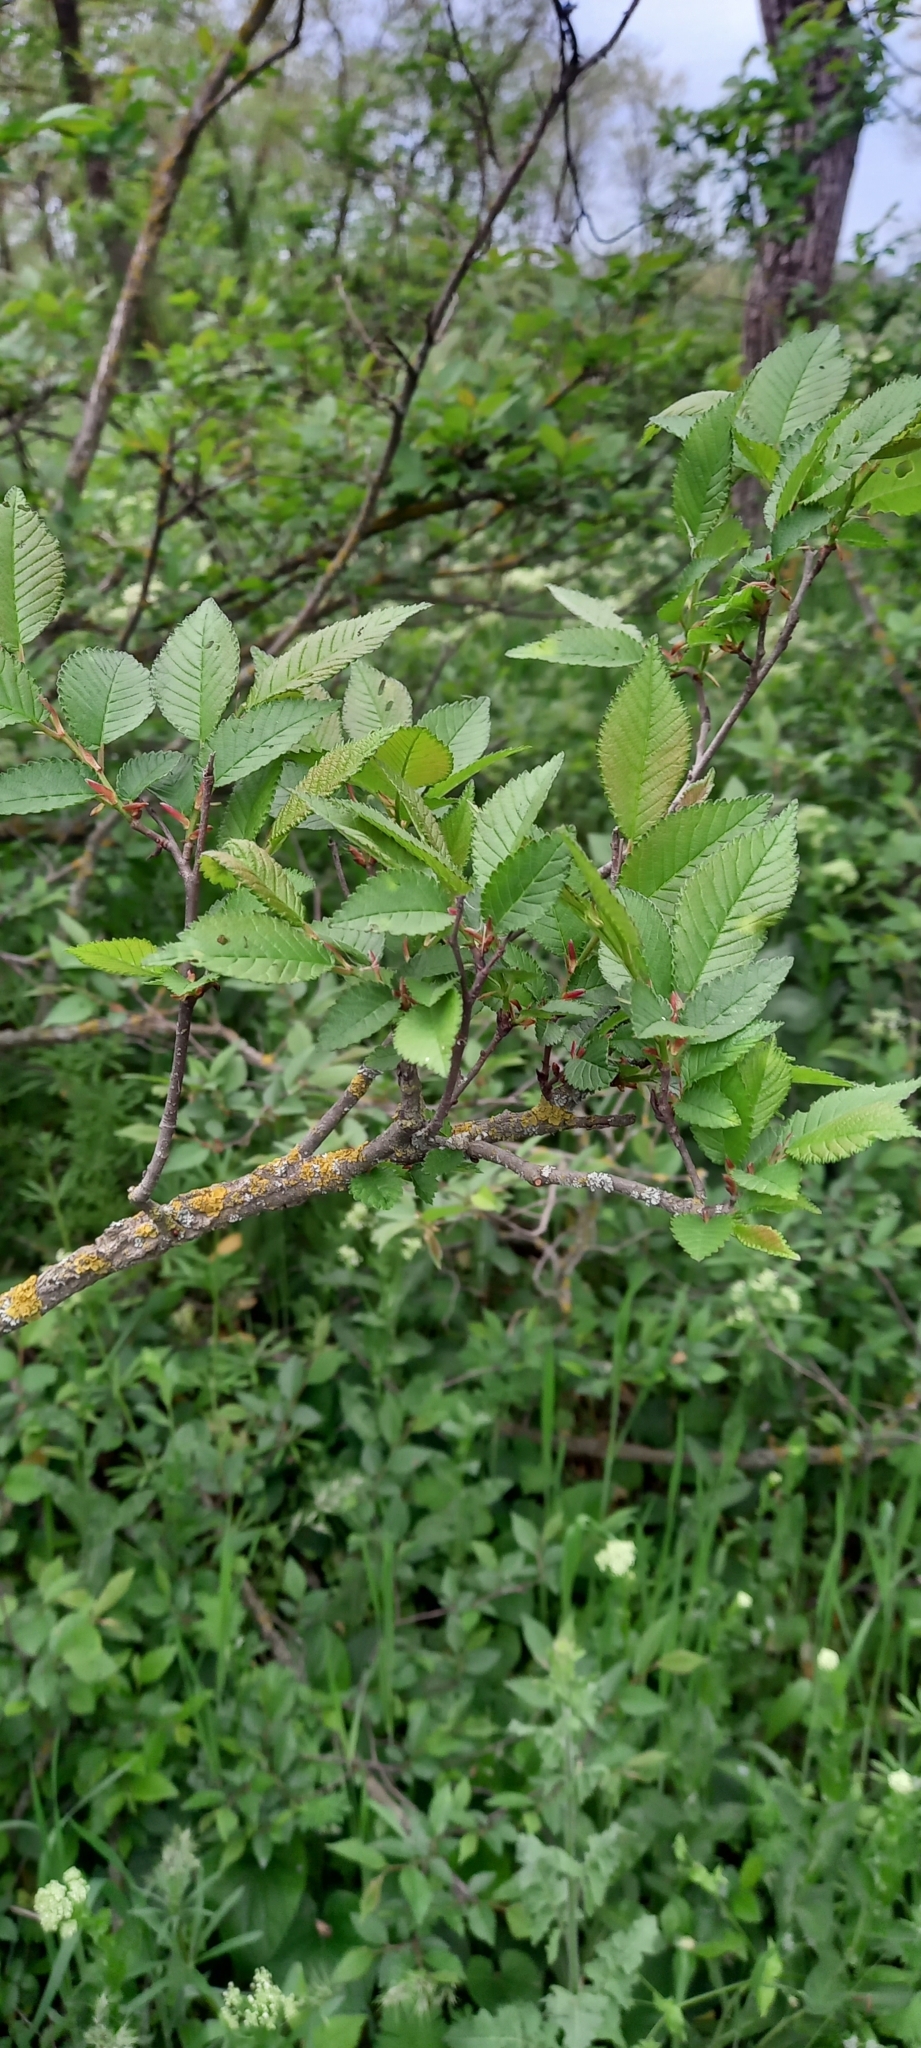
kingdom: Plantae
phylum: Tracheophyta
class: Magnoliopsida
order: Rosales
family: Ulmaceae
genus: Ulmus
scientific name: Ulmus minor
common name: Small-leaved elm
